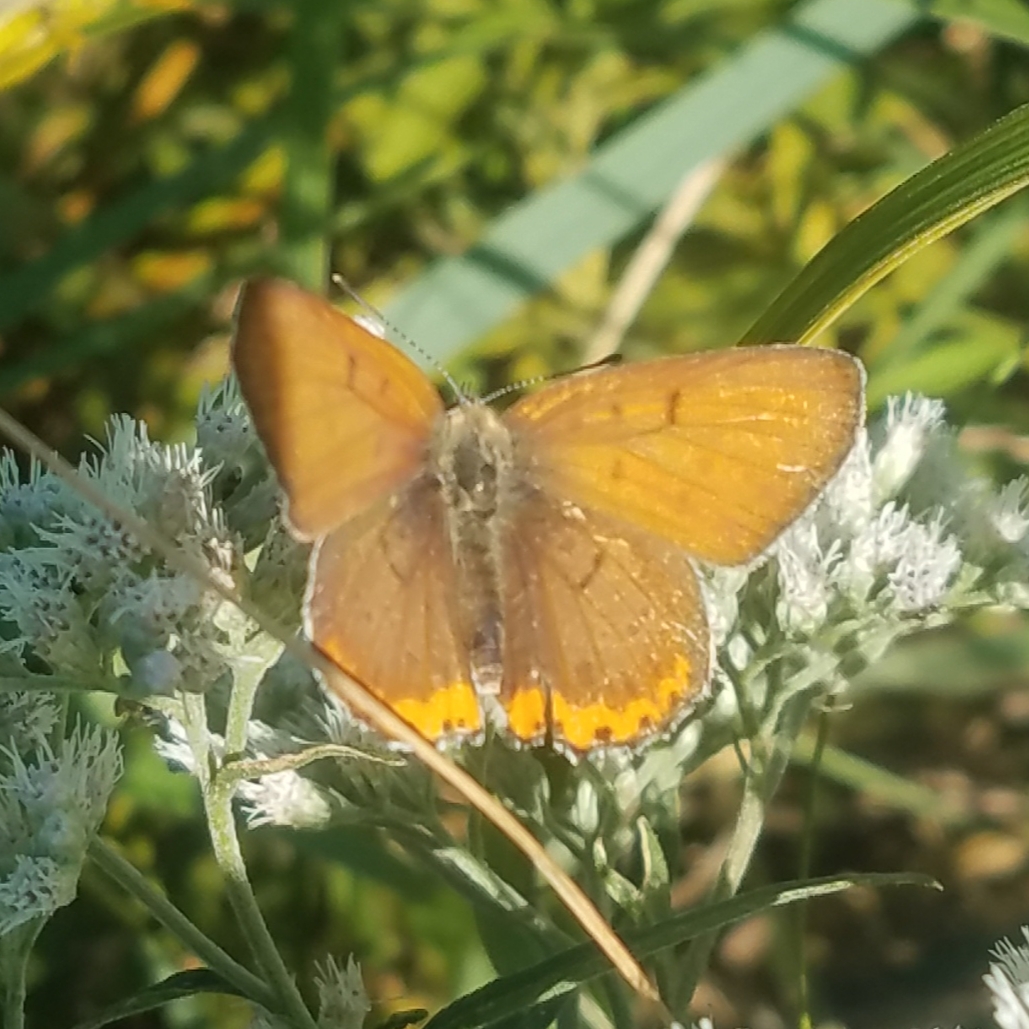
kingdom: Animalia
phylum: Arthropoda
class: Insecta
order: Lepidoptera
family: Lycaenidae
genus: Tharsalea
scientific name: Tharsalea hyllus
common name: Bronze copper
